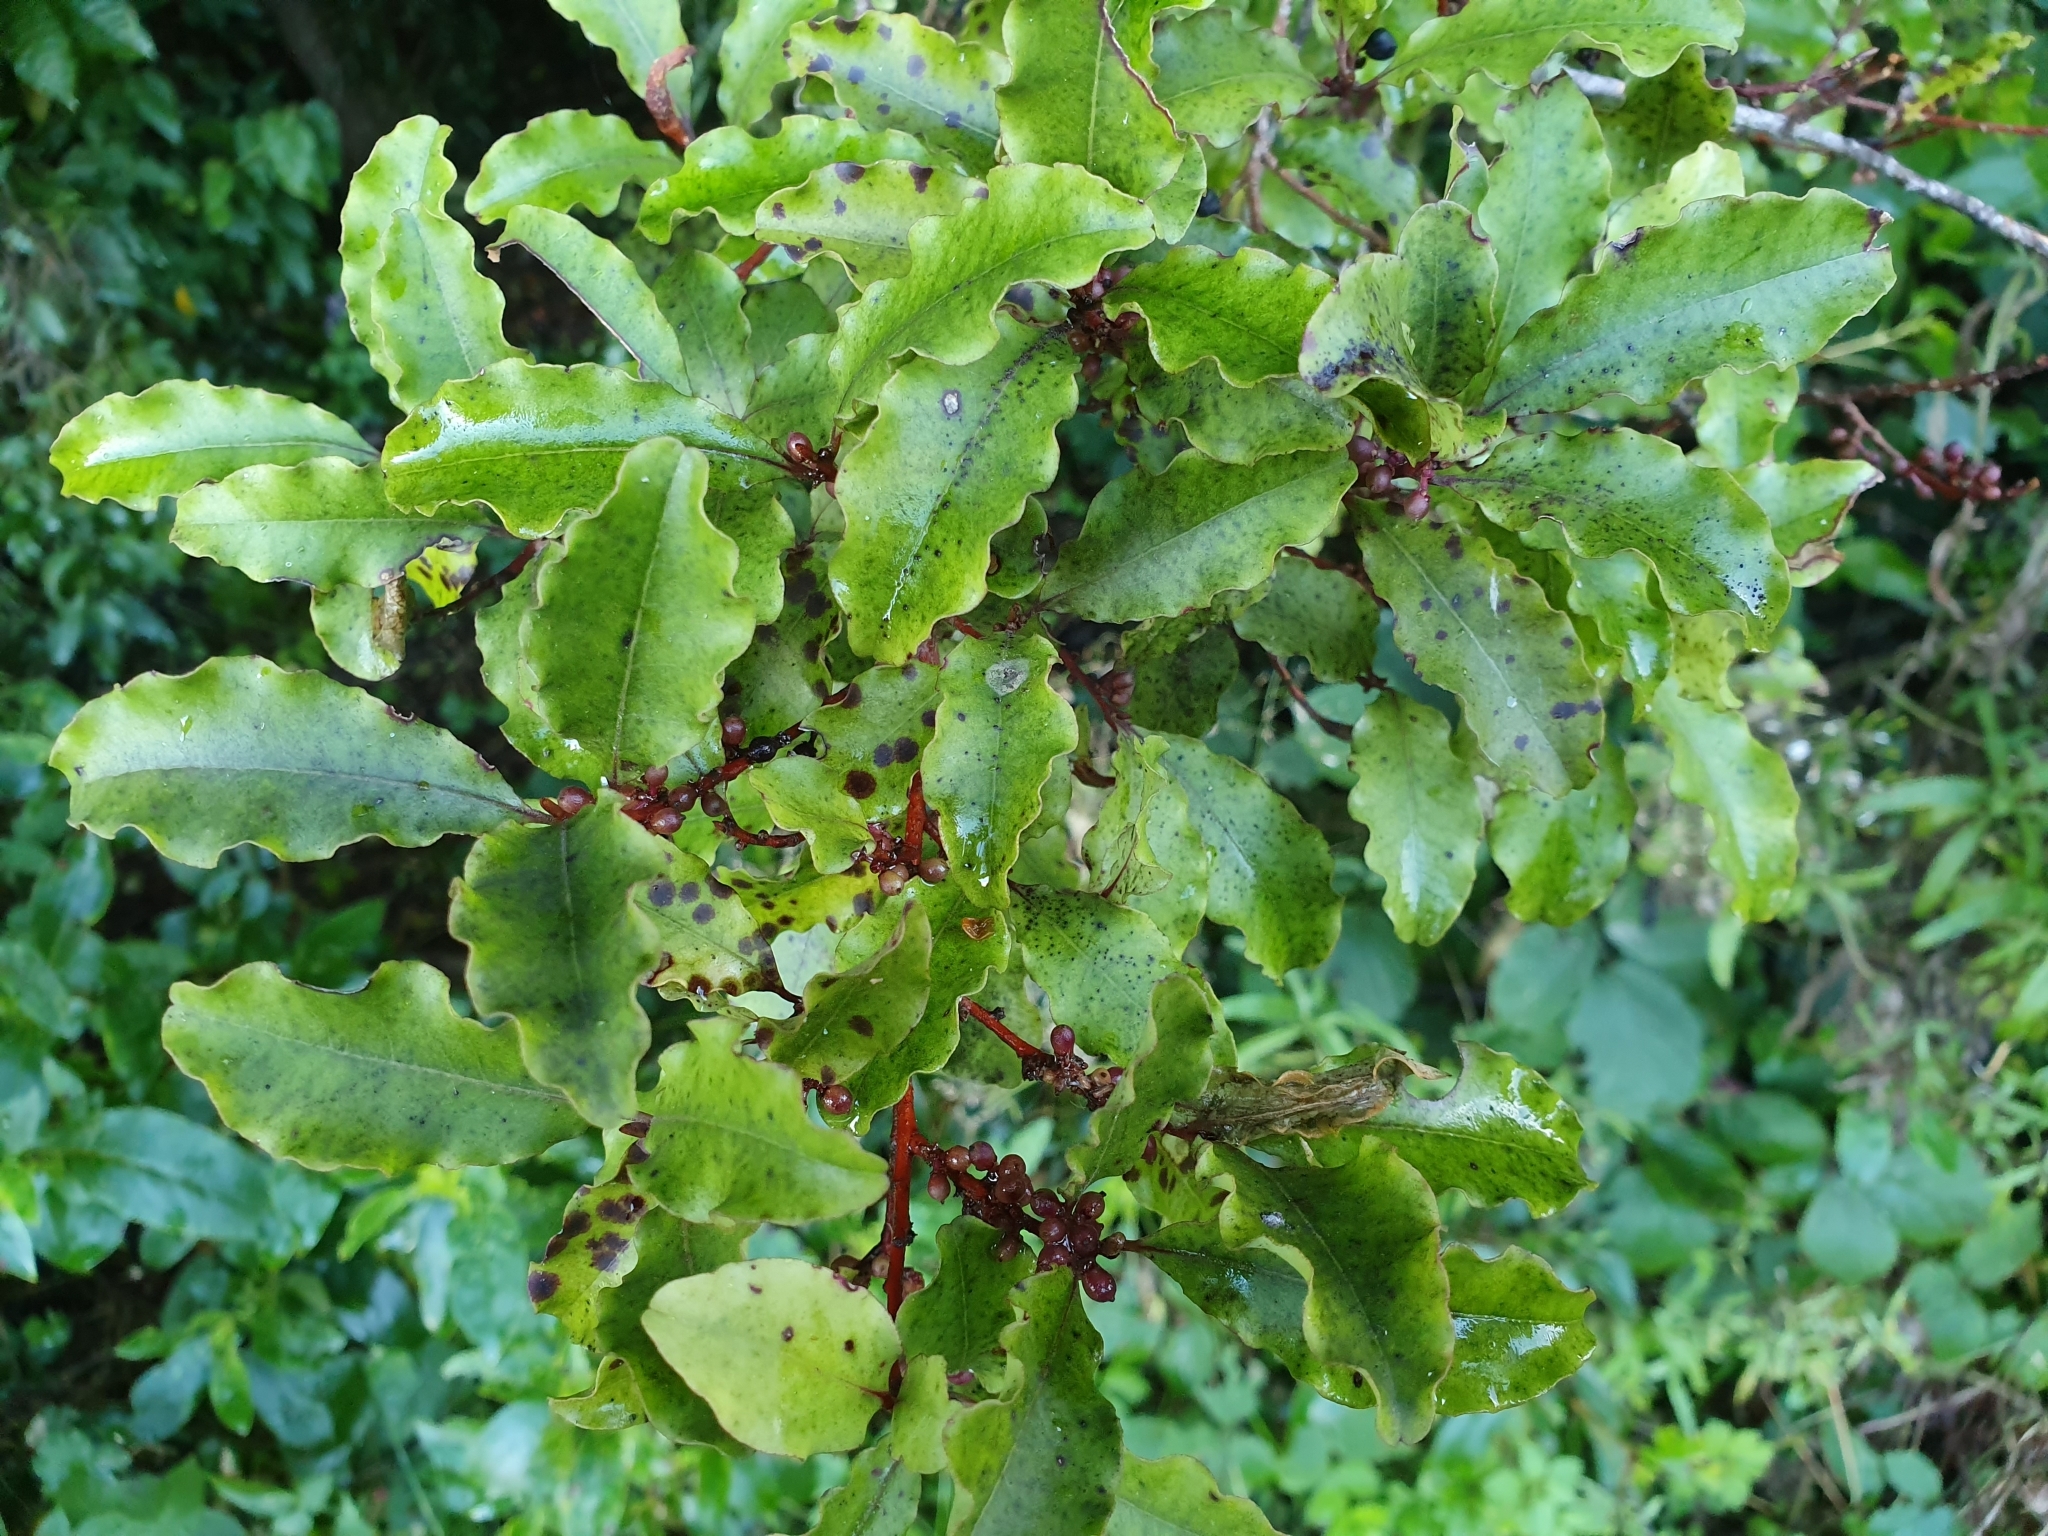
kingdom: Plantae
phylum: Tracheophyta
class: Magnoliopsida
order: Ericales
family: Primulaceae
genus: Myrsine
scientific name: Myrsine australis
